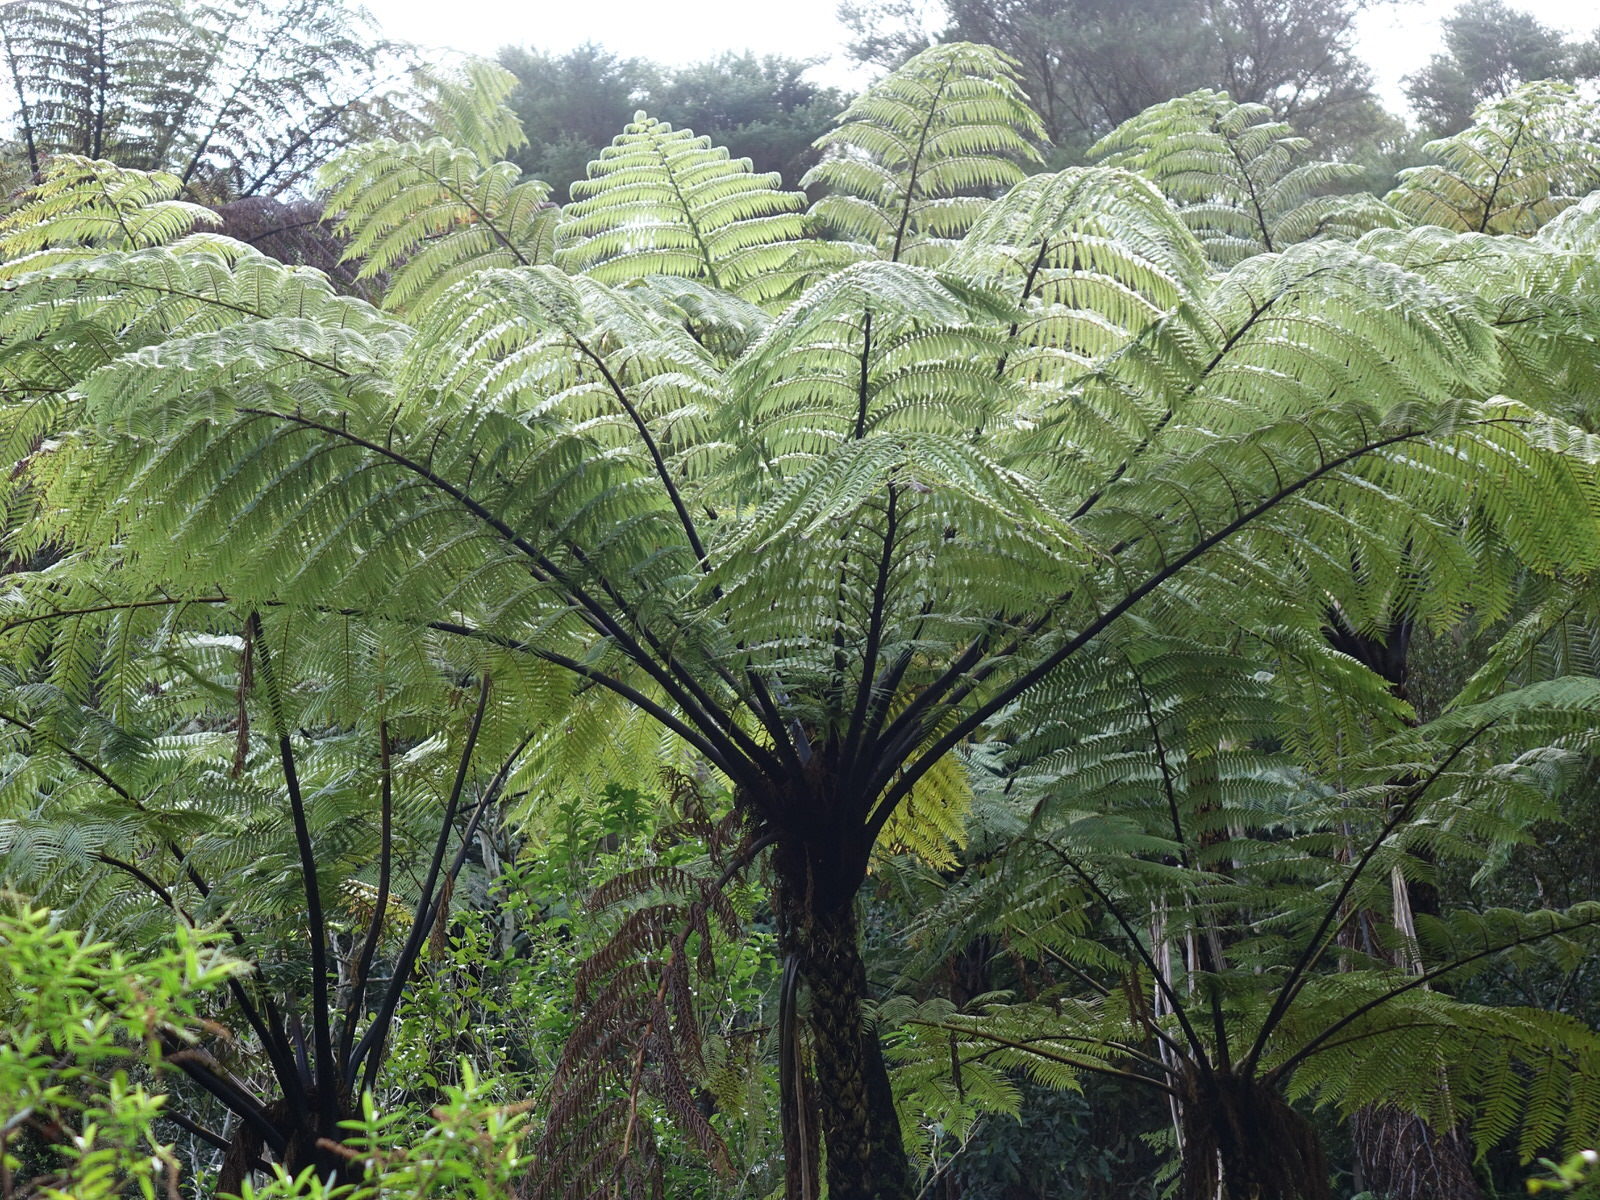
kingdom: Plantae
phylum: Tracheophyta
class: Polypodiopsida
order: Cyatheales
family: Cyatheaceae
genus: Sphaeropteris
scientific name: Sphaeropteris medullaris
